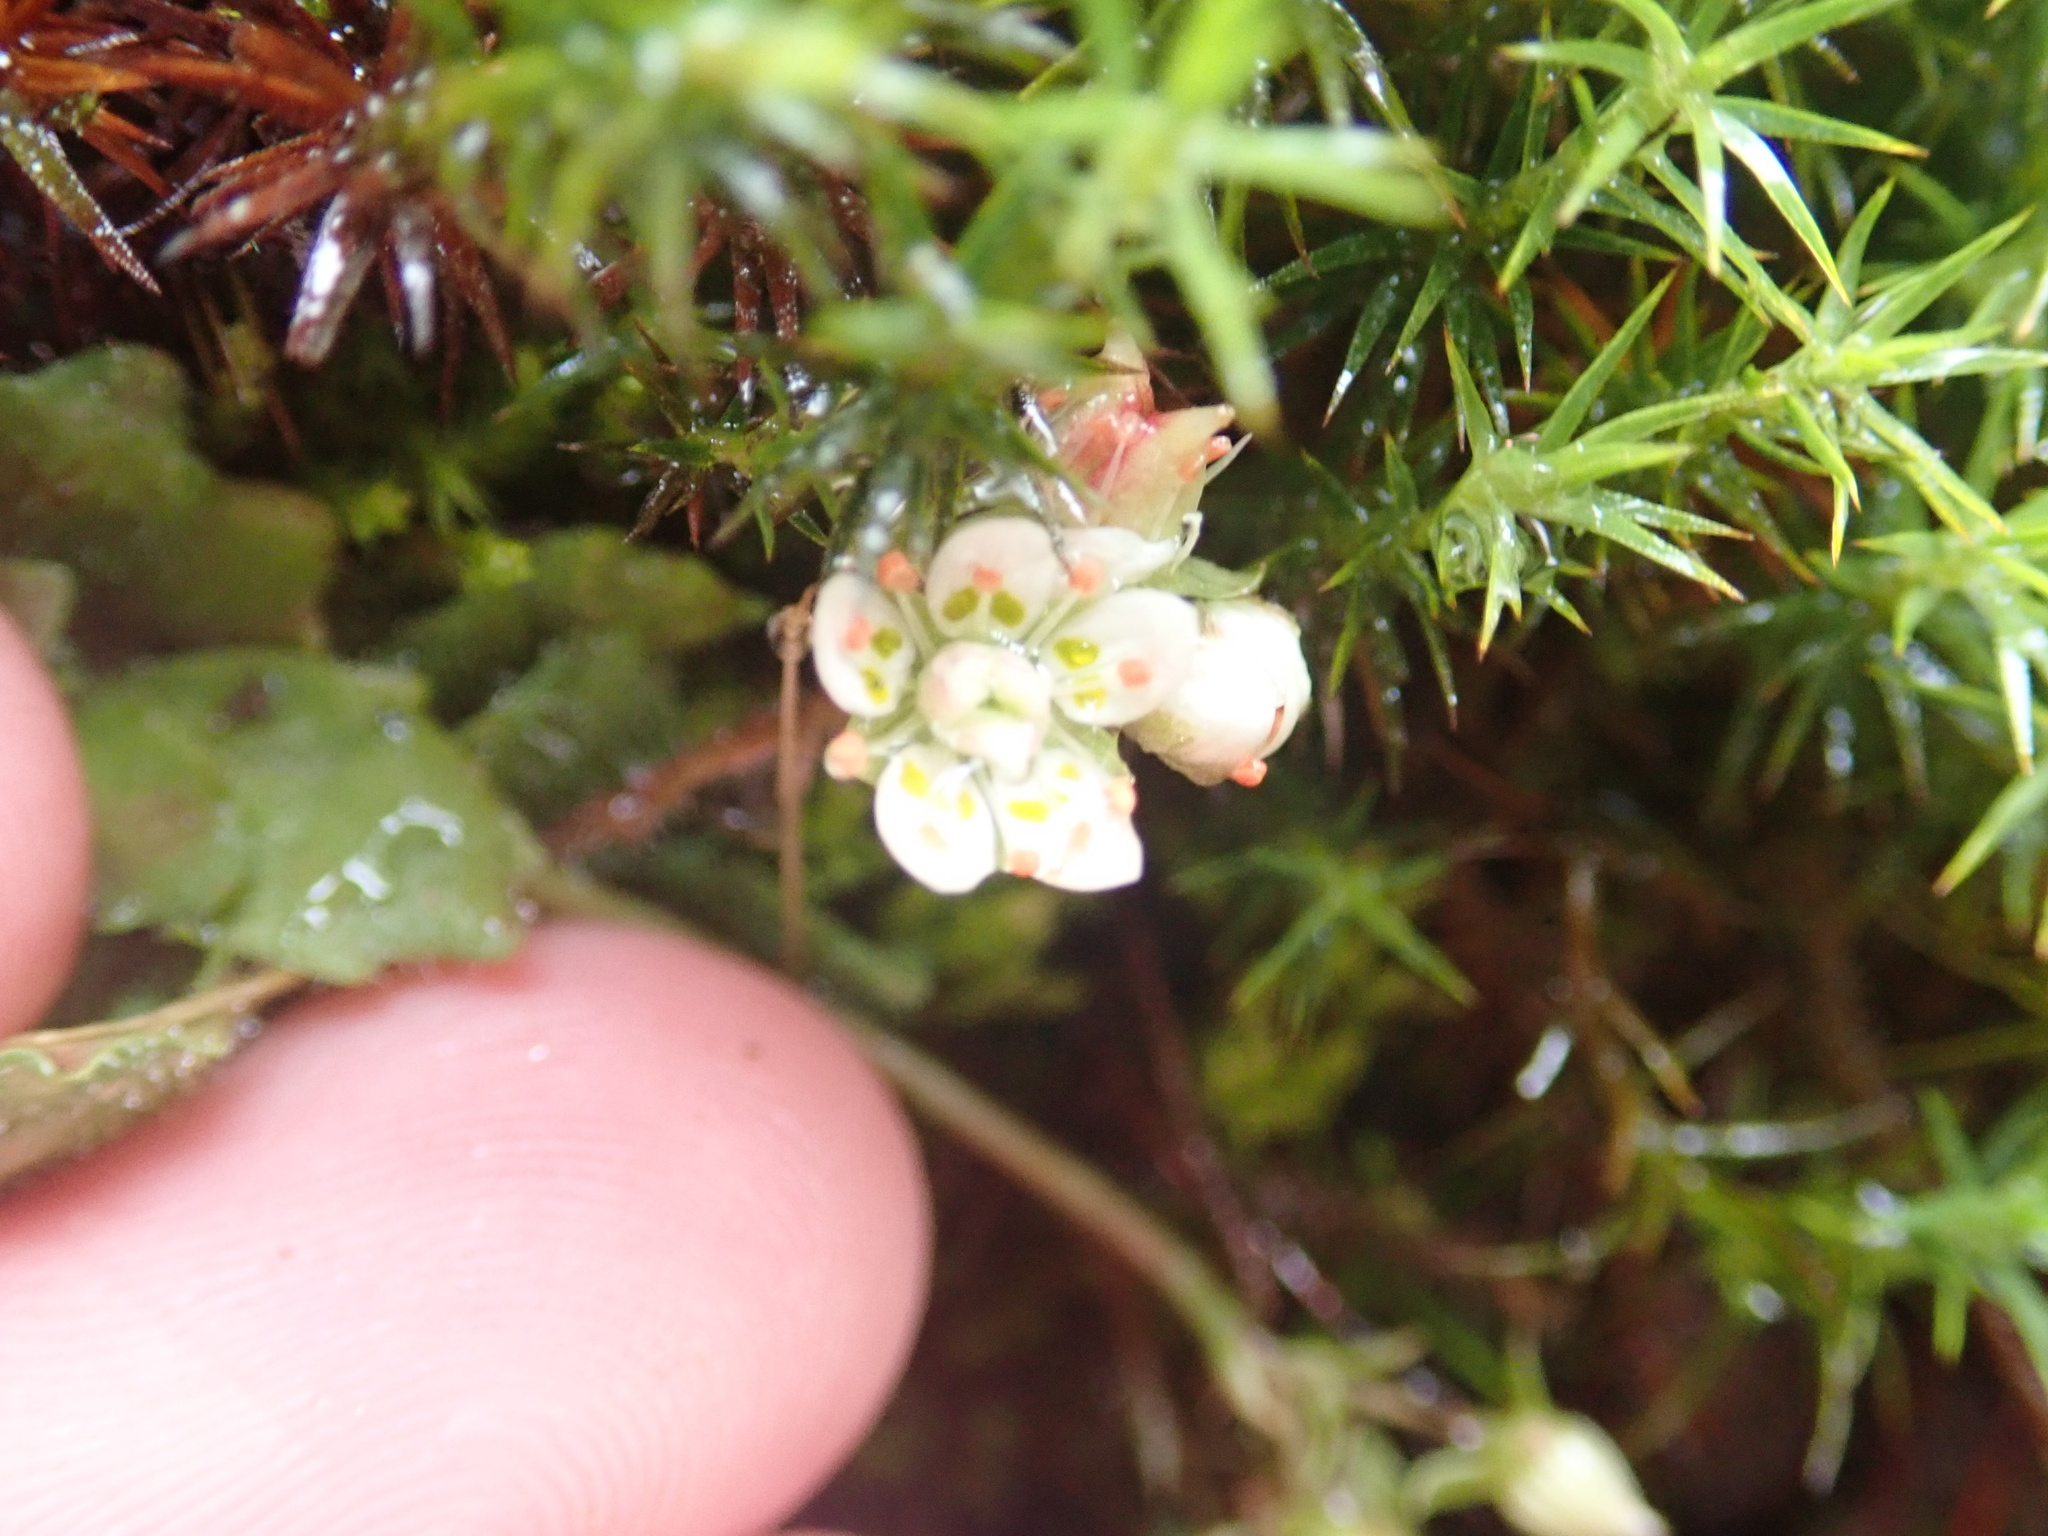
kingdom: Plantae
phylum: Tracheophyta
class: Magnoliopsida
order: Saxifragales
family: Saxifragaceae
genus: Micranthes
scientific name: Micranthes stellaris
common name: Starry saxifrage
